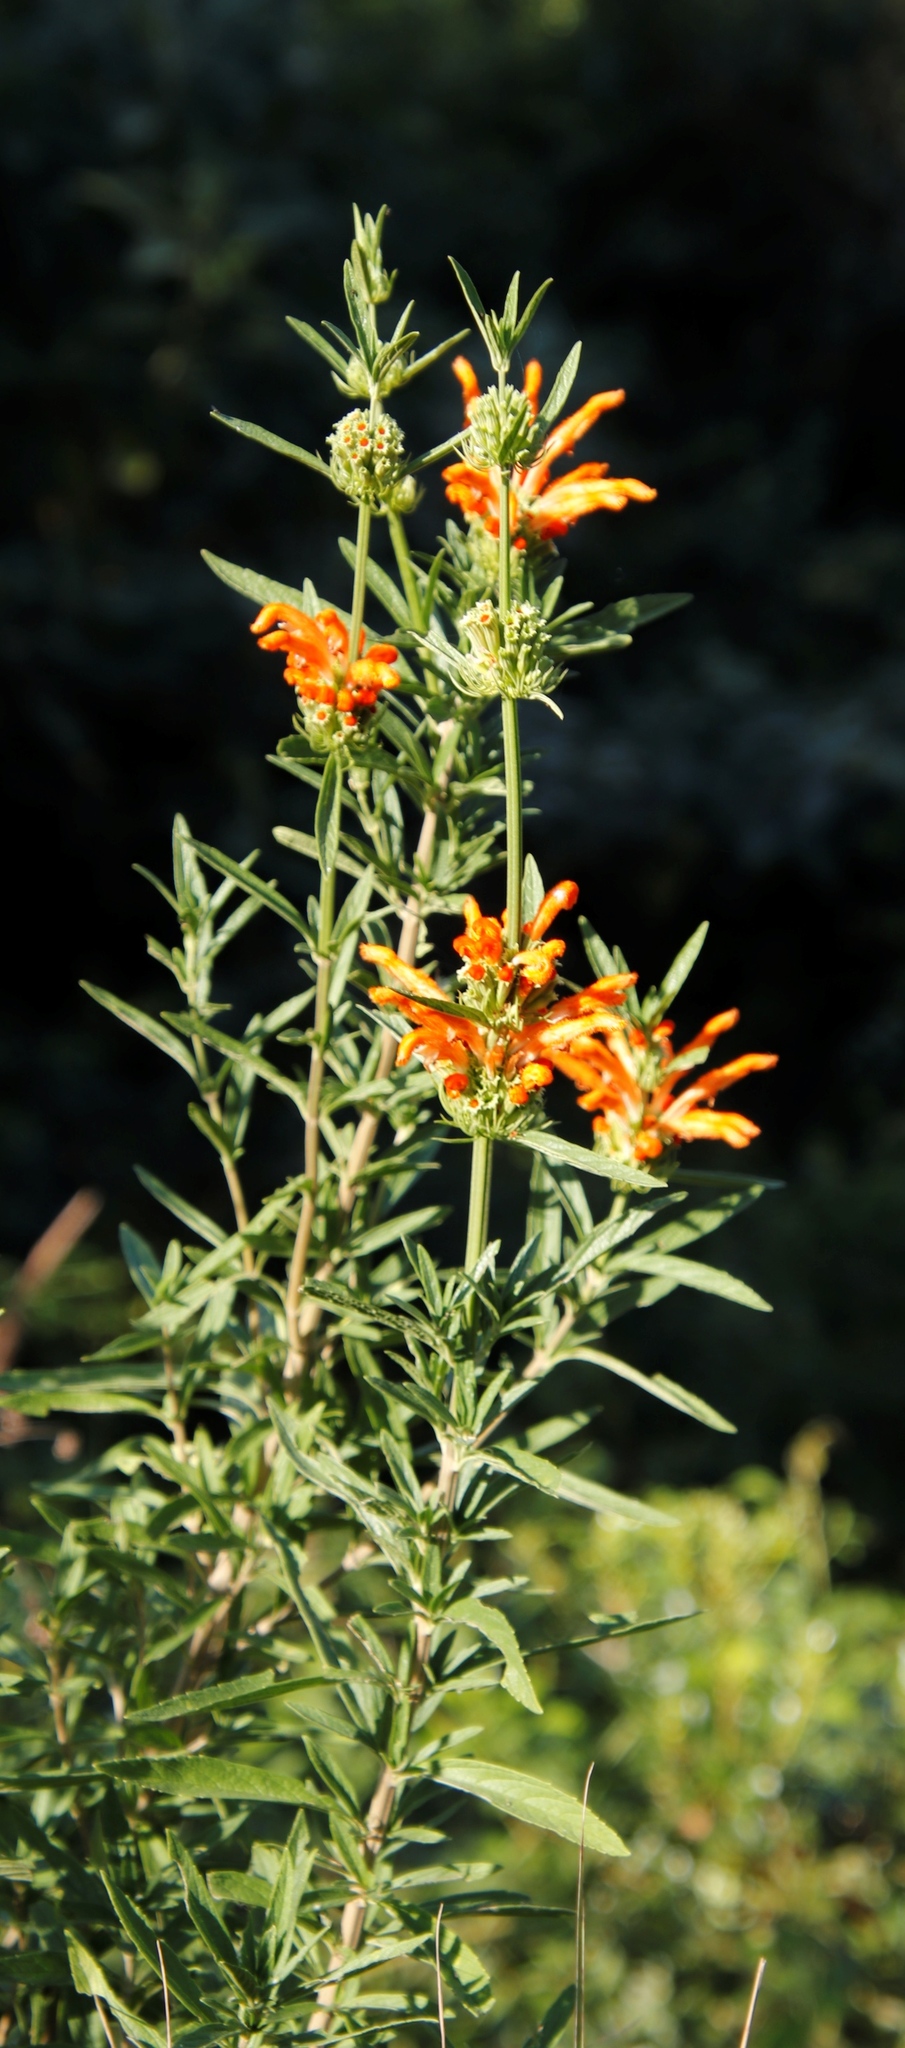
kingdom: Plantae
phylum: Tracheophyta
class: Magnoliopsida
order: Lamiales
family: Lamiaceae
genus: Leonotis
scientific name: Leonotis leonurus
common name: Lion's ear
